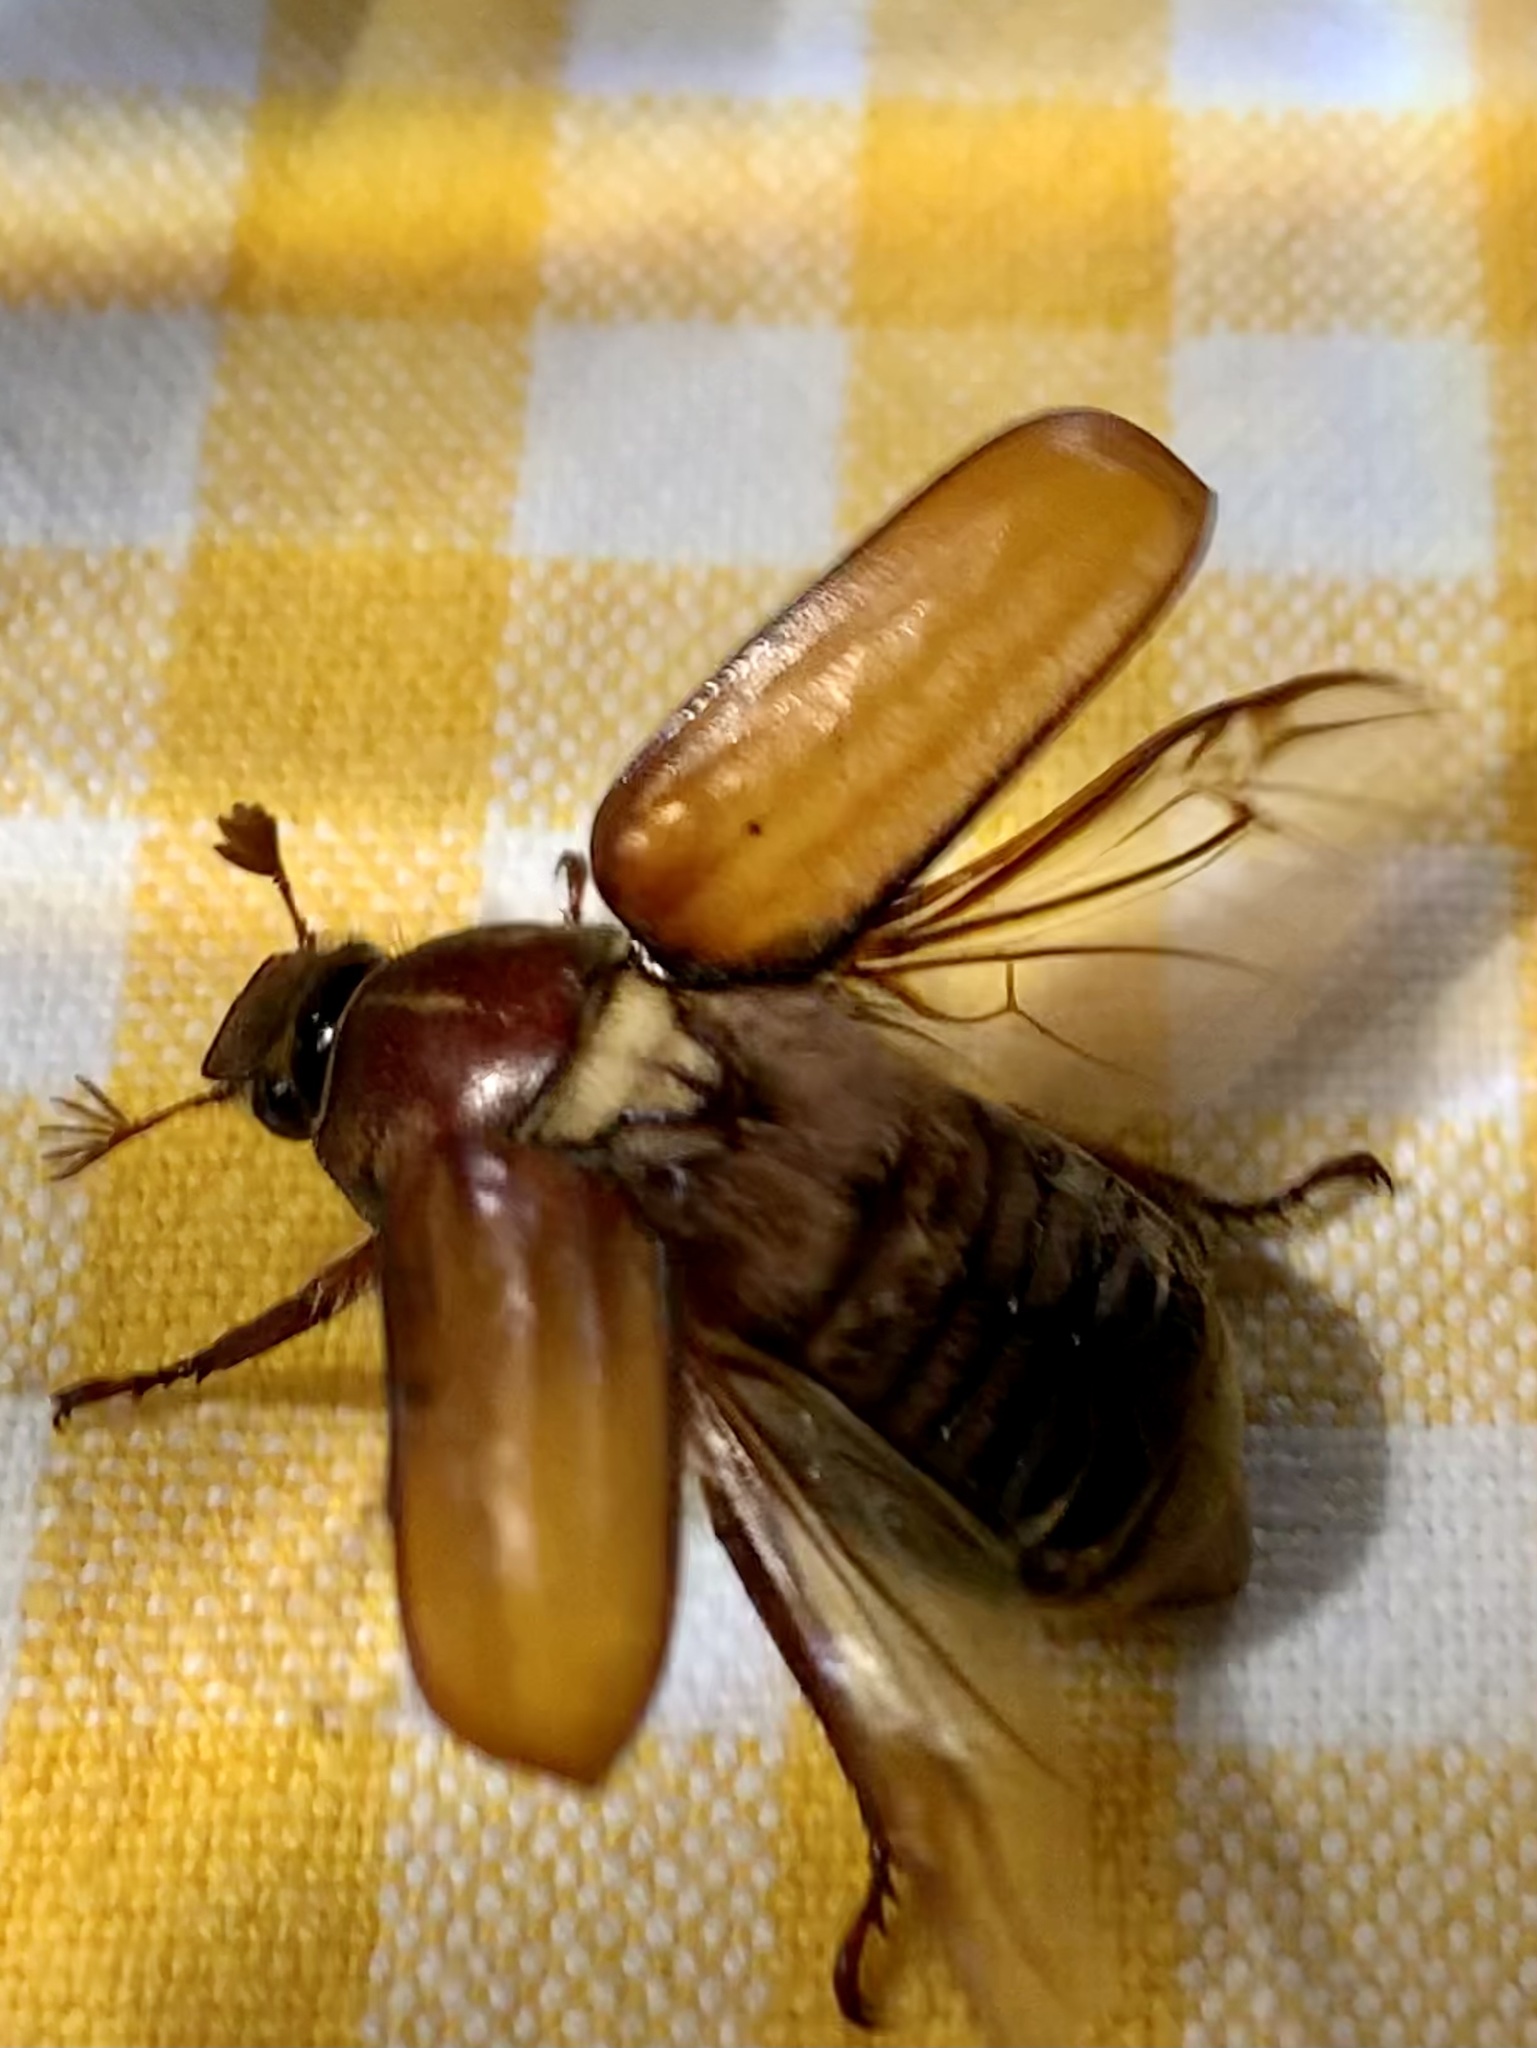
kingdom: Animalia
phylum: Arthropoda
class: Insecta
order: Coleoptera
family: Scarabaeidae
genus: Anoxia
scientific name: Anoxia matutinalis
